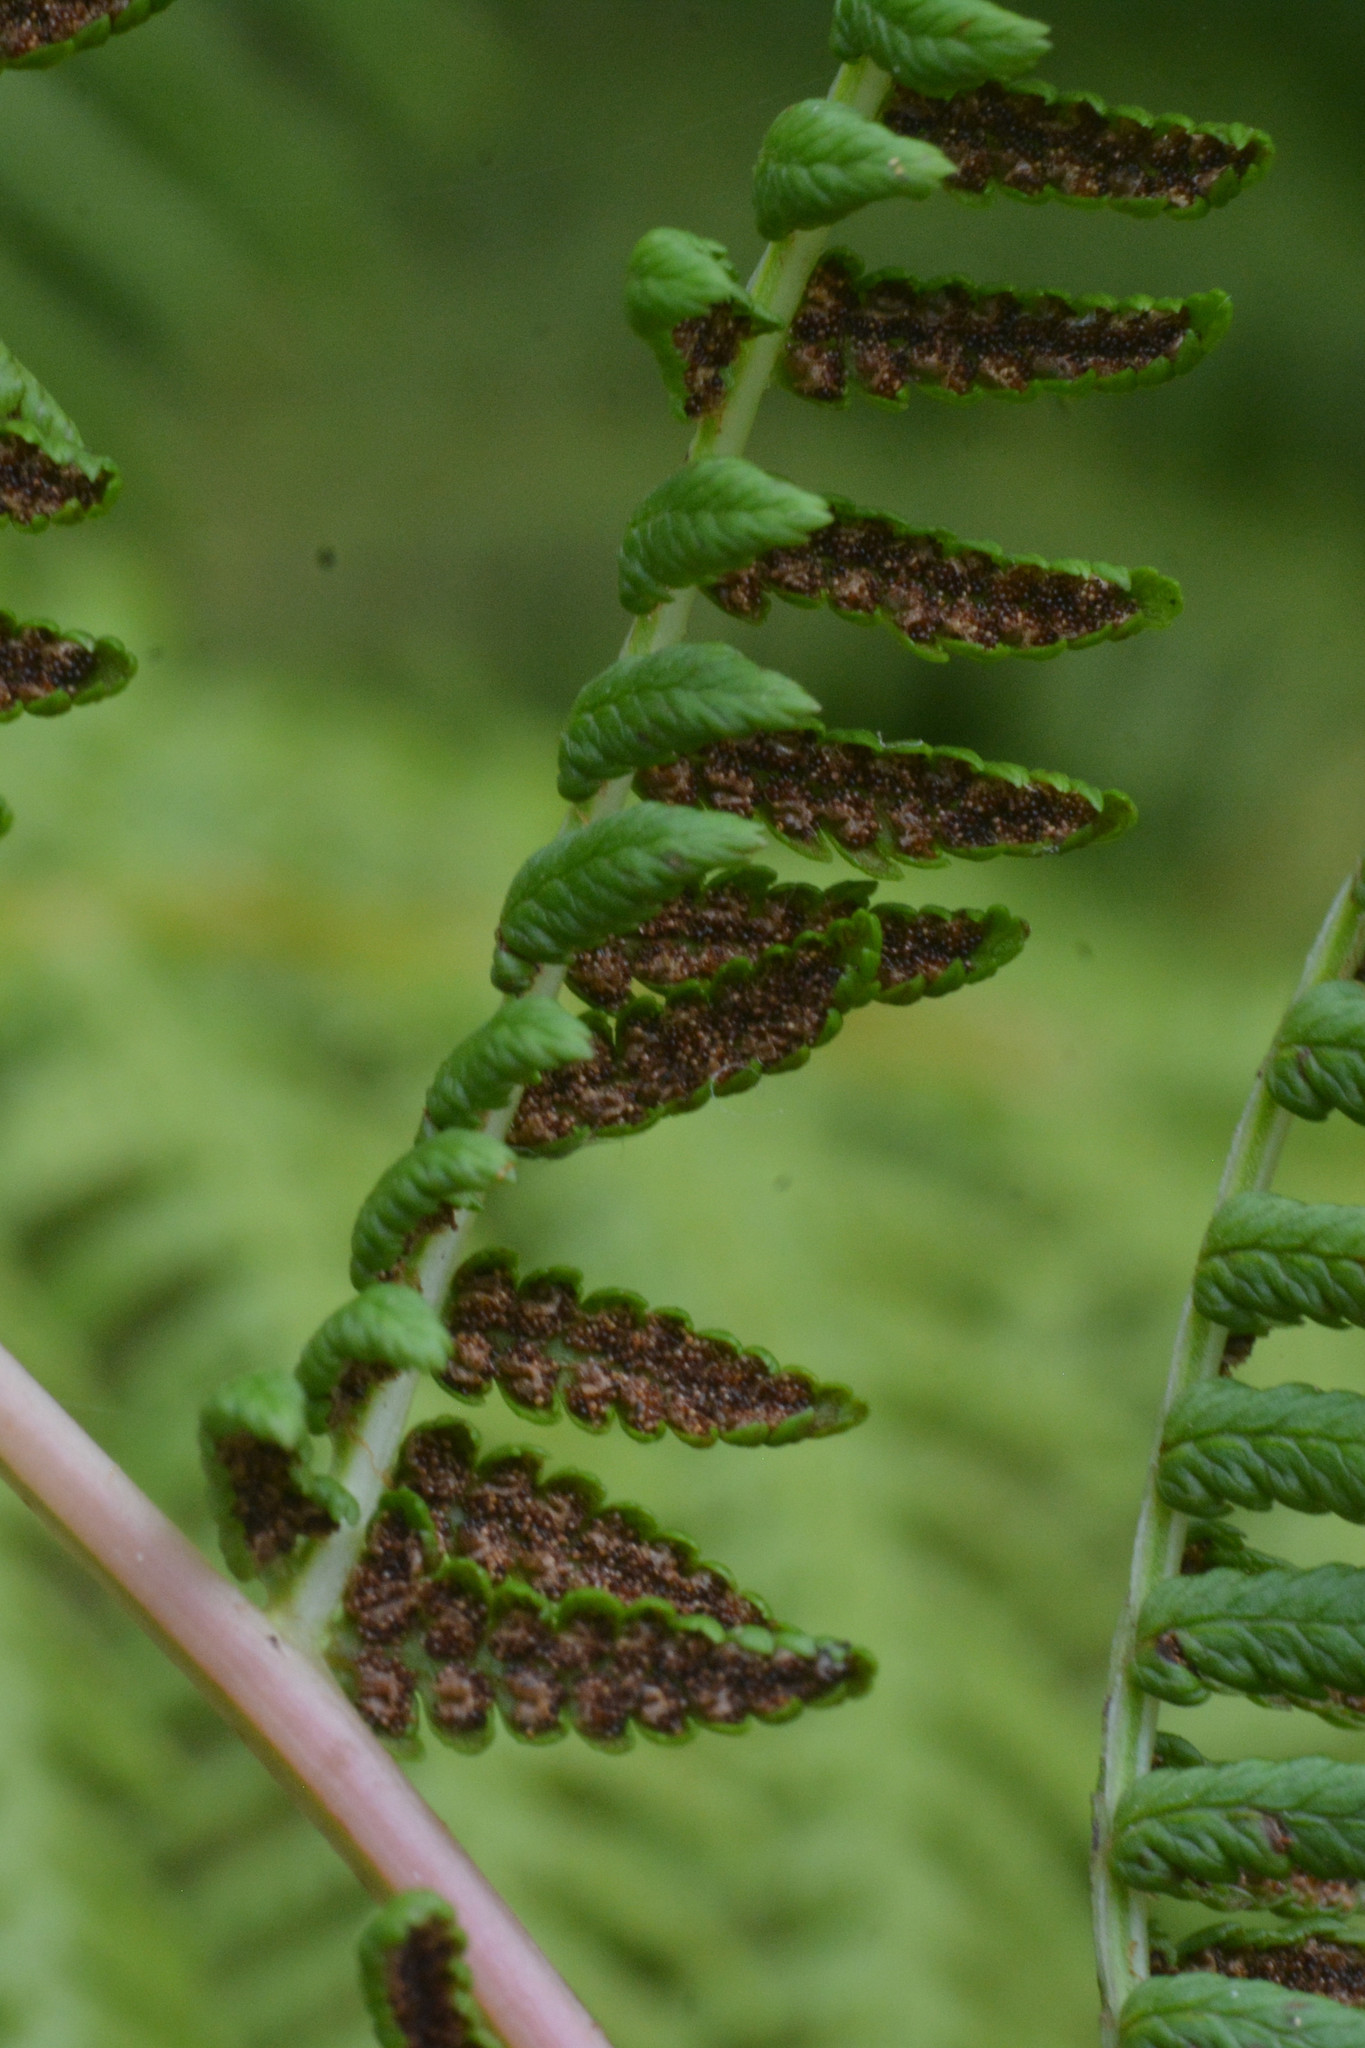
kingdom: Plantae
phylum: Tracheophyta
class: Polypodiopsida
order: Polypodiales
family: Athyriaceae
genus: Athyrium
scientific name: Athyrium filix-femina
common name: Lady fern
